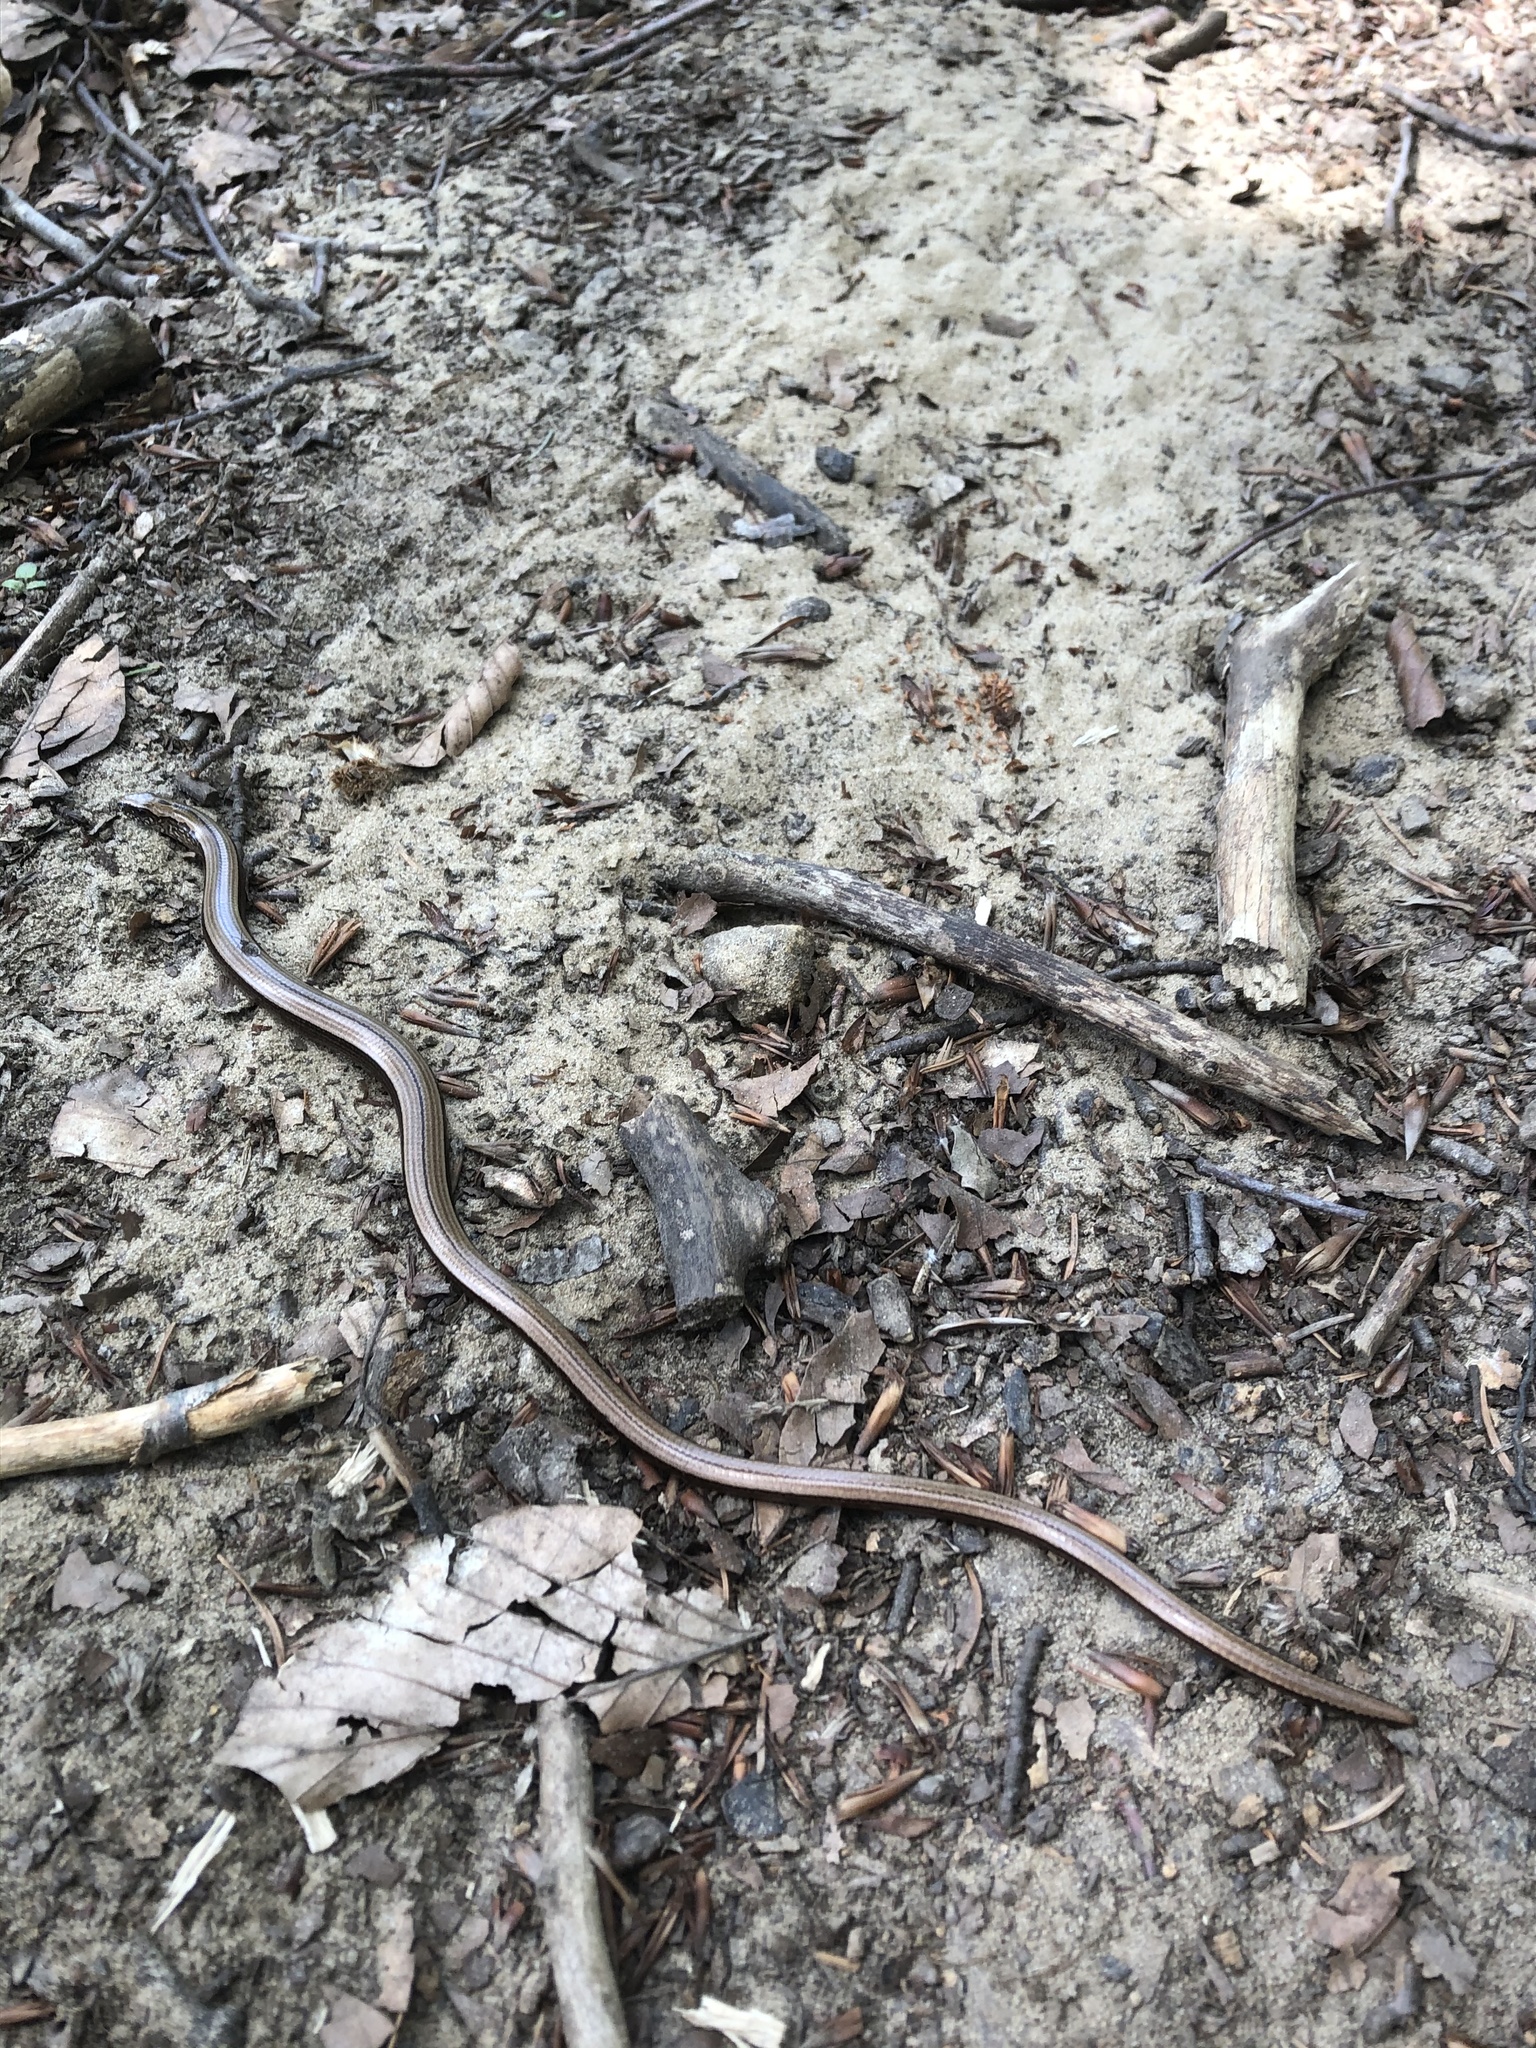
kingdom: Animalia
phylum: Chordata
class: Squamata
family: Anguidae
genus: Anguis
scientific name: Anguis fragilis
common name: Slow worm
